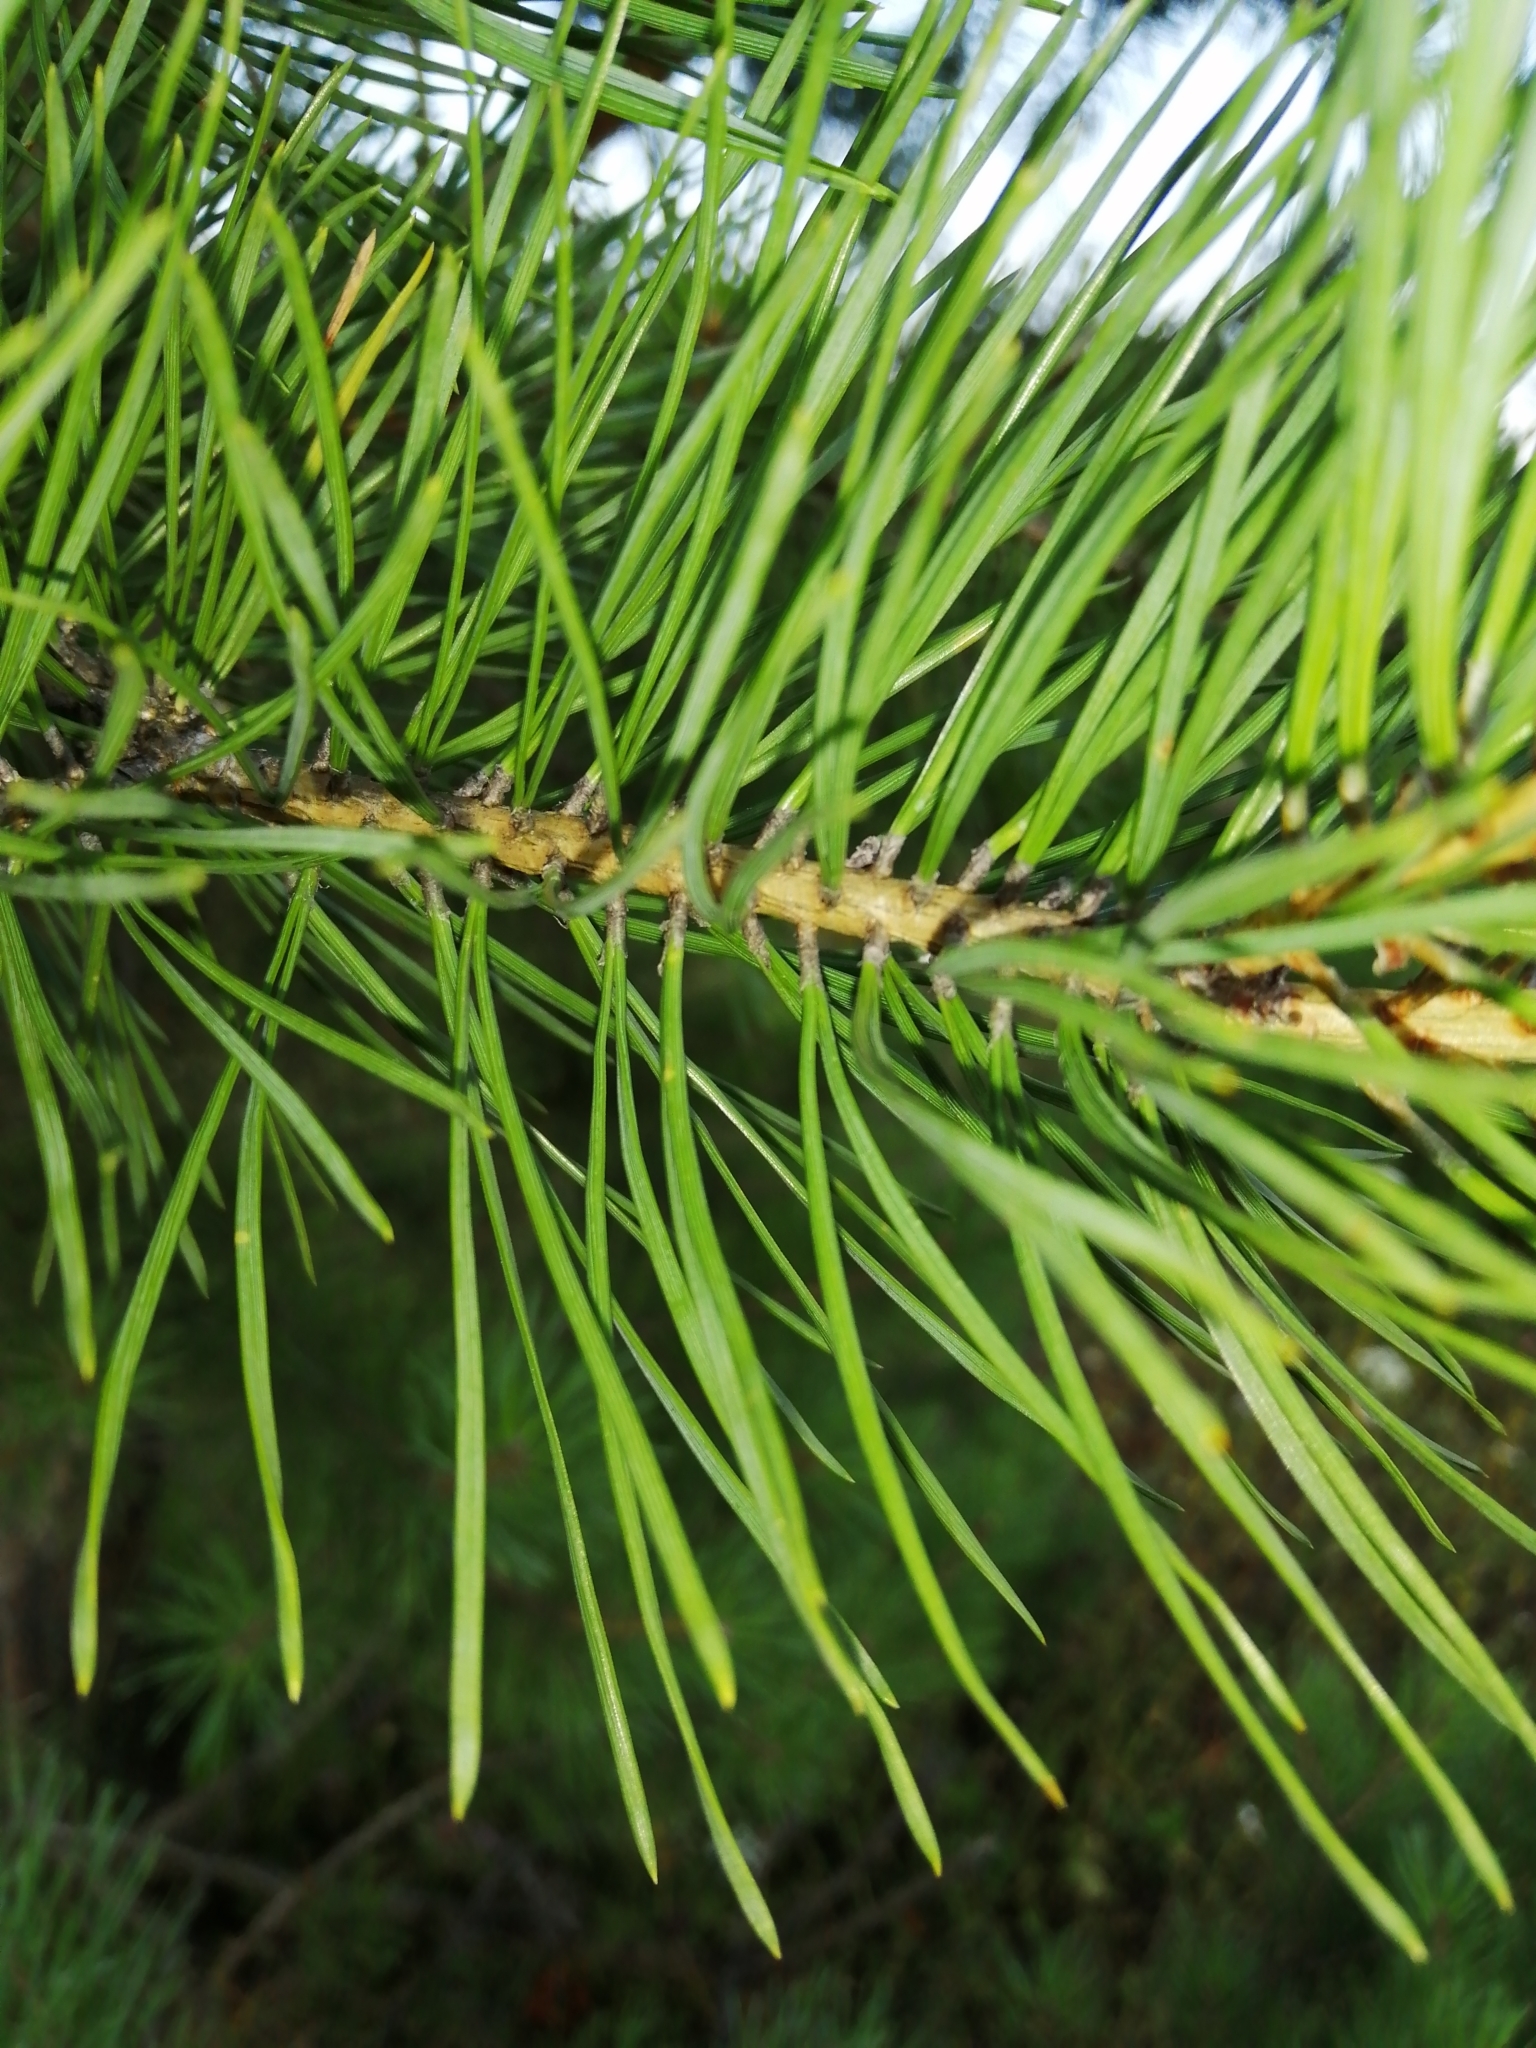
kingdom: Plantae
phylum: Tracheophyta
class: Pinopsida
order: Pinales
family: Pinaceae
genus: Pinus
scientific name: Pinus sylvestris
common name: Scots pine
